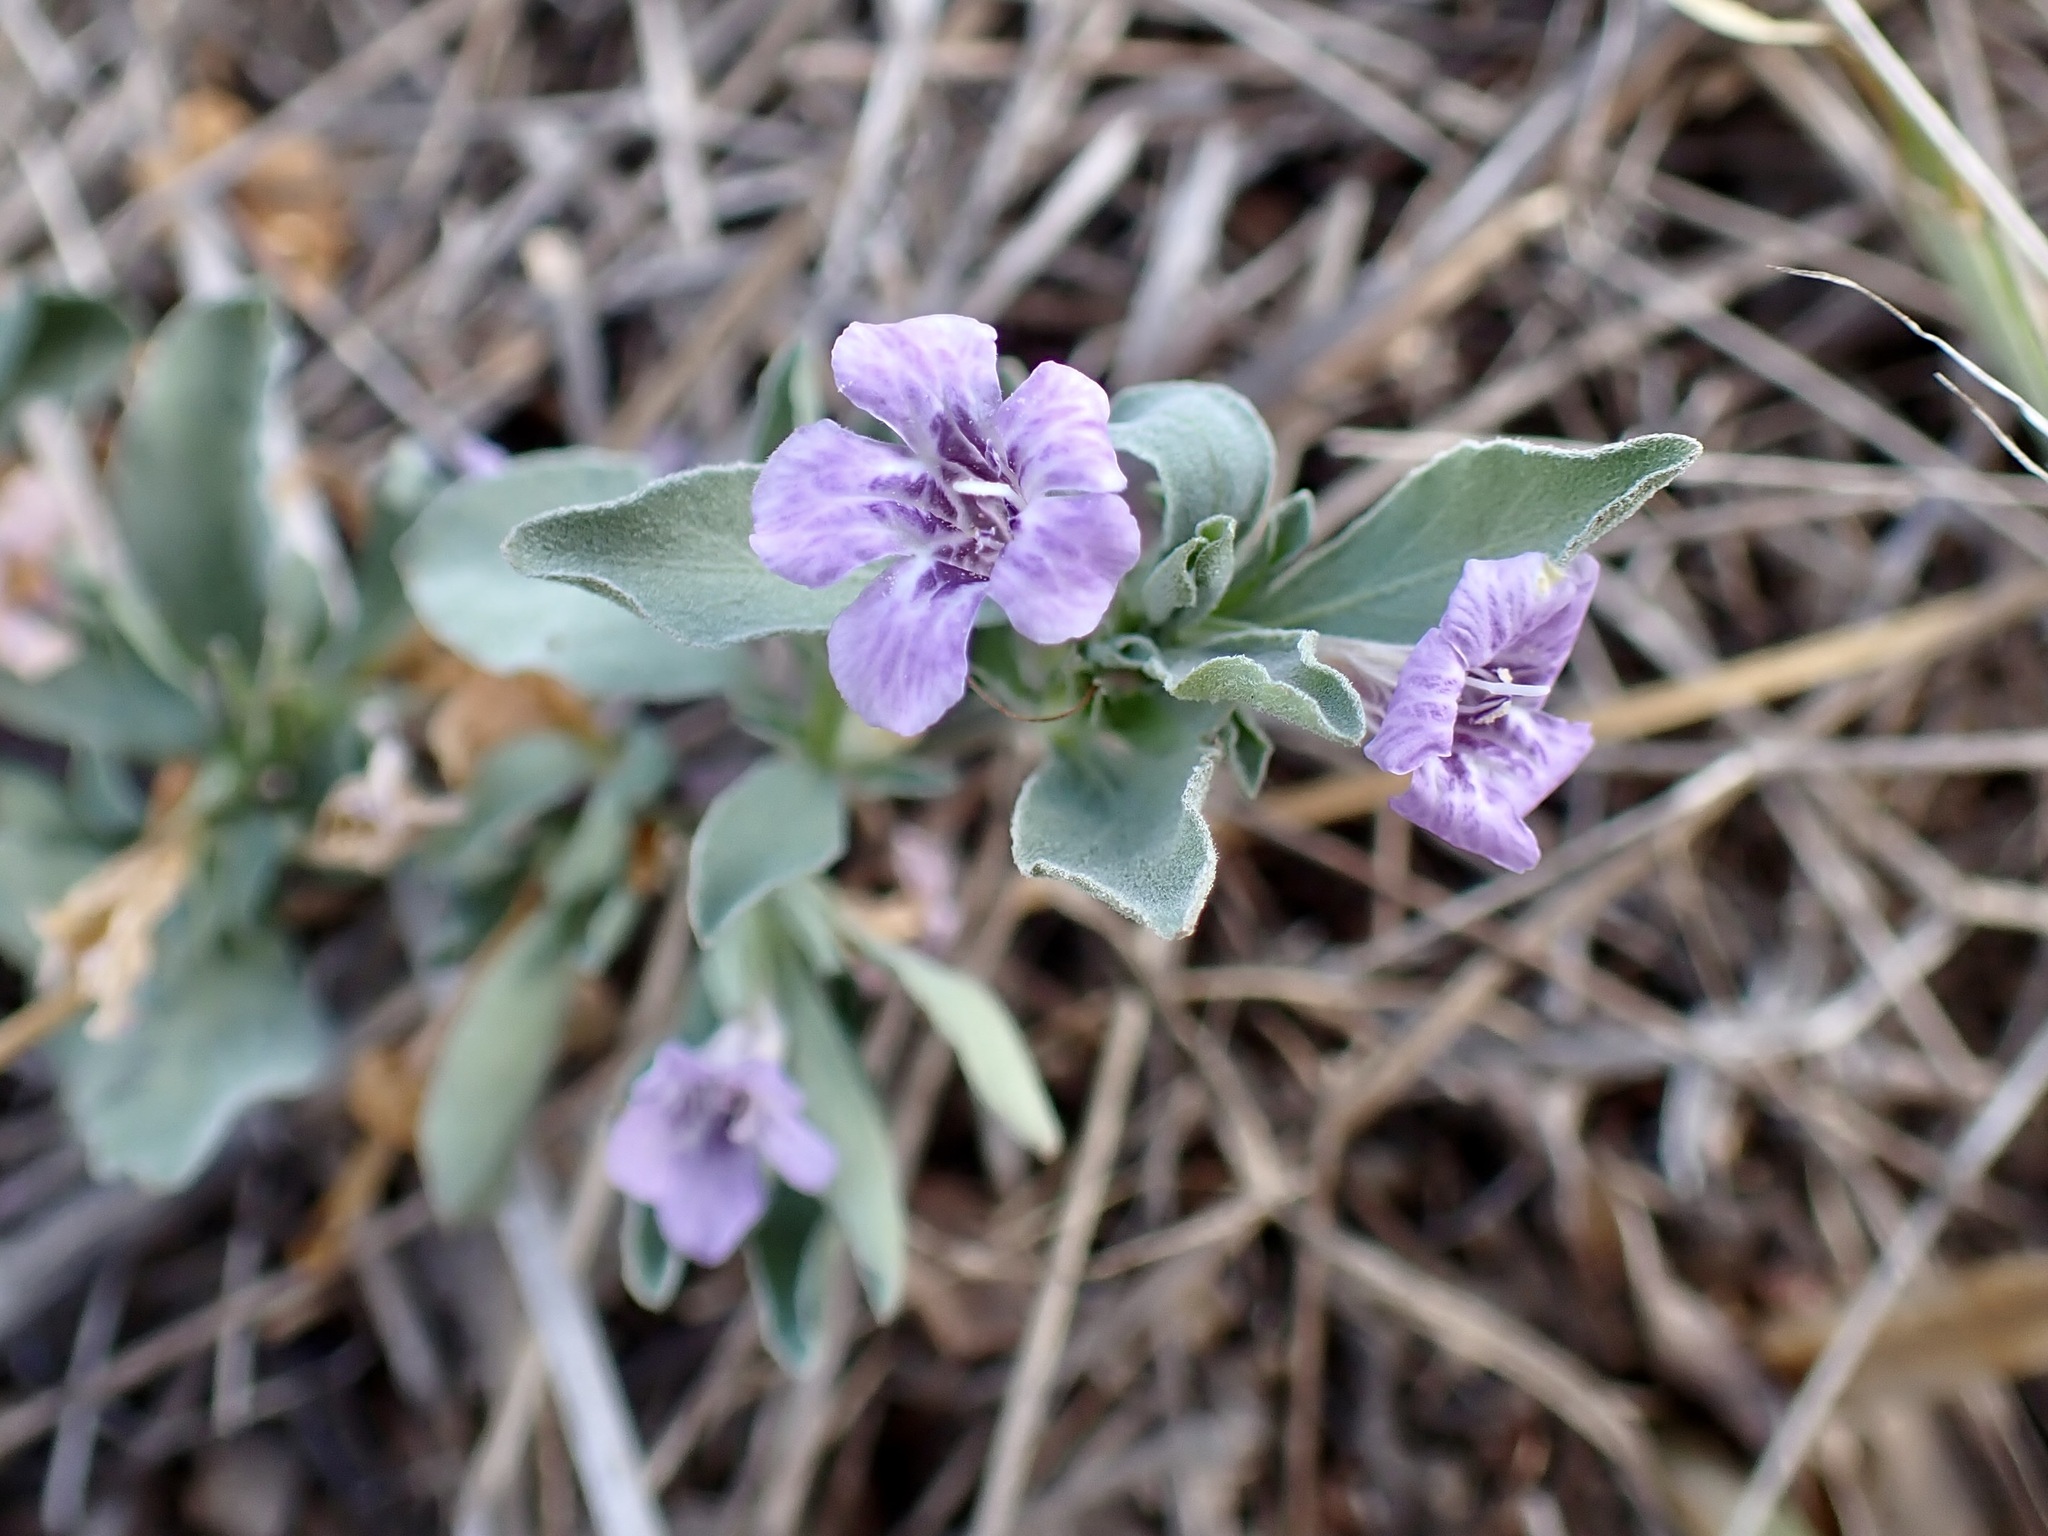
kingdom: Plantae
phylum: Tracheophyta
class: Magnoliopsida
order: Lamiales
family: Acanthaceae
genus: Dyschoriste
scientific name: Dyschoriste decumbens
